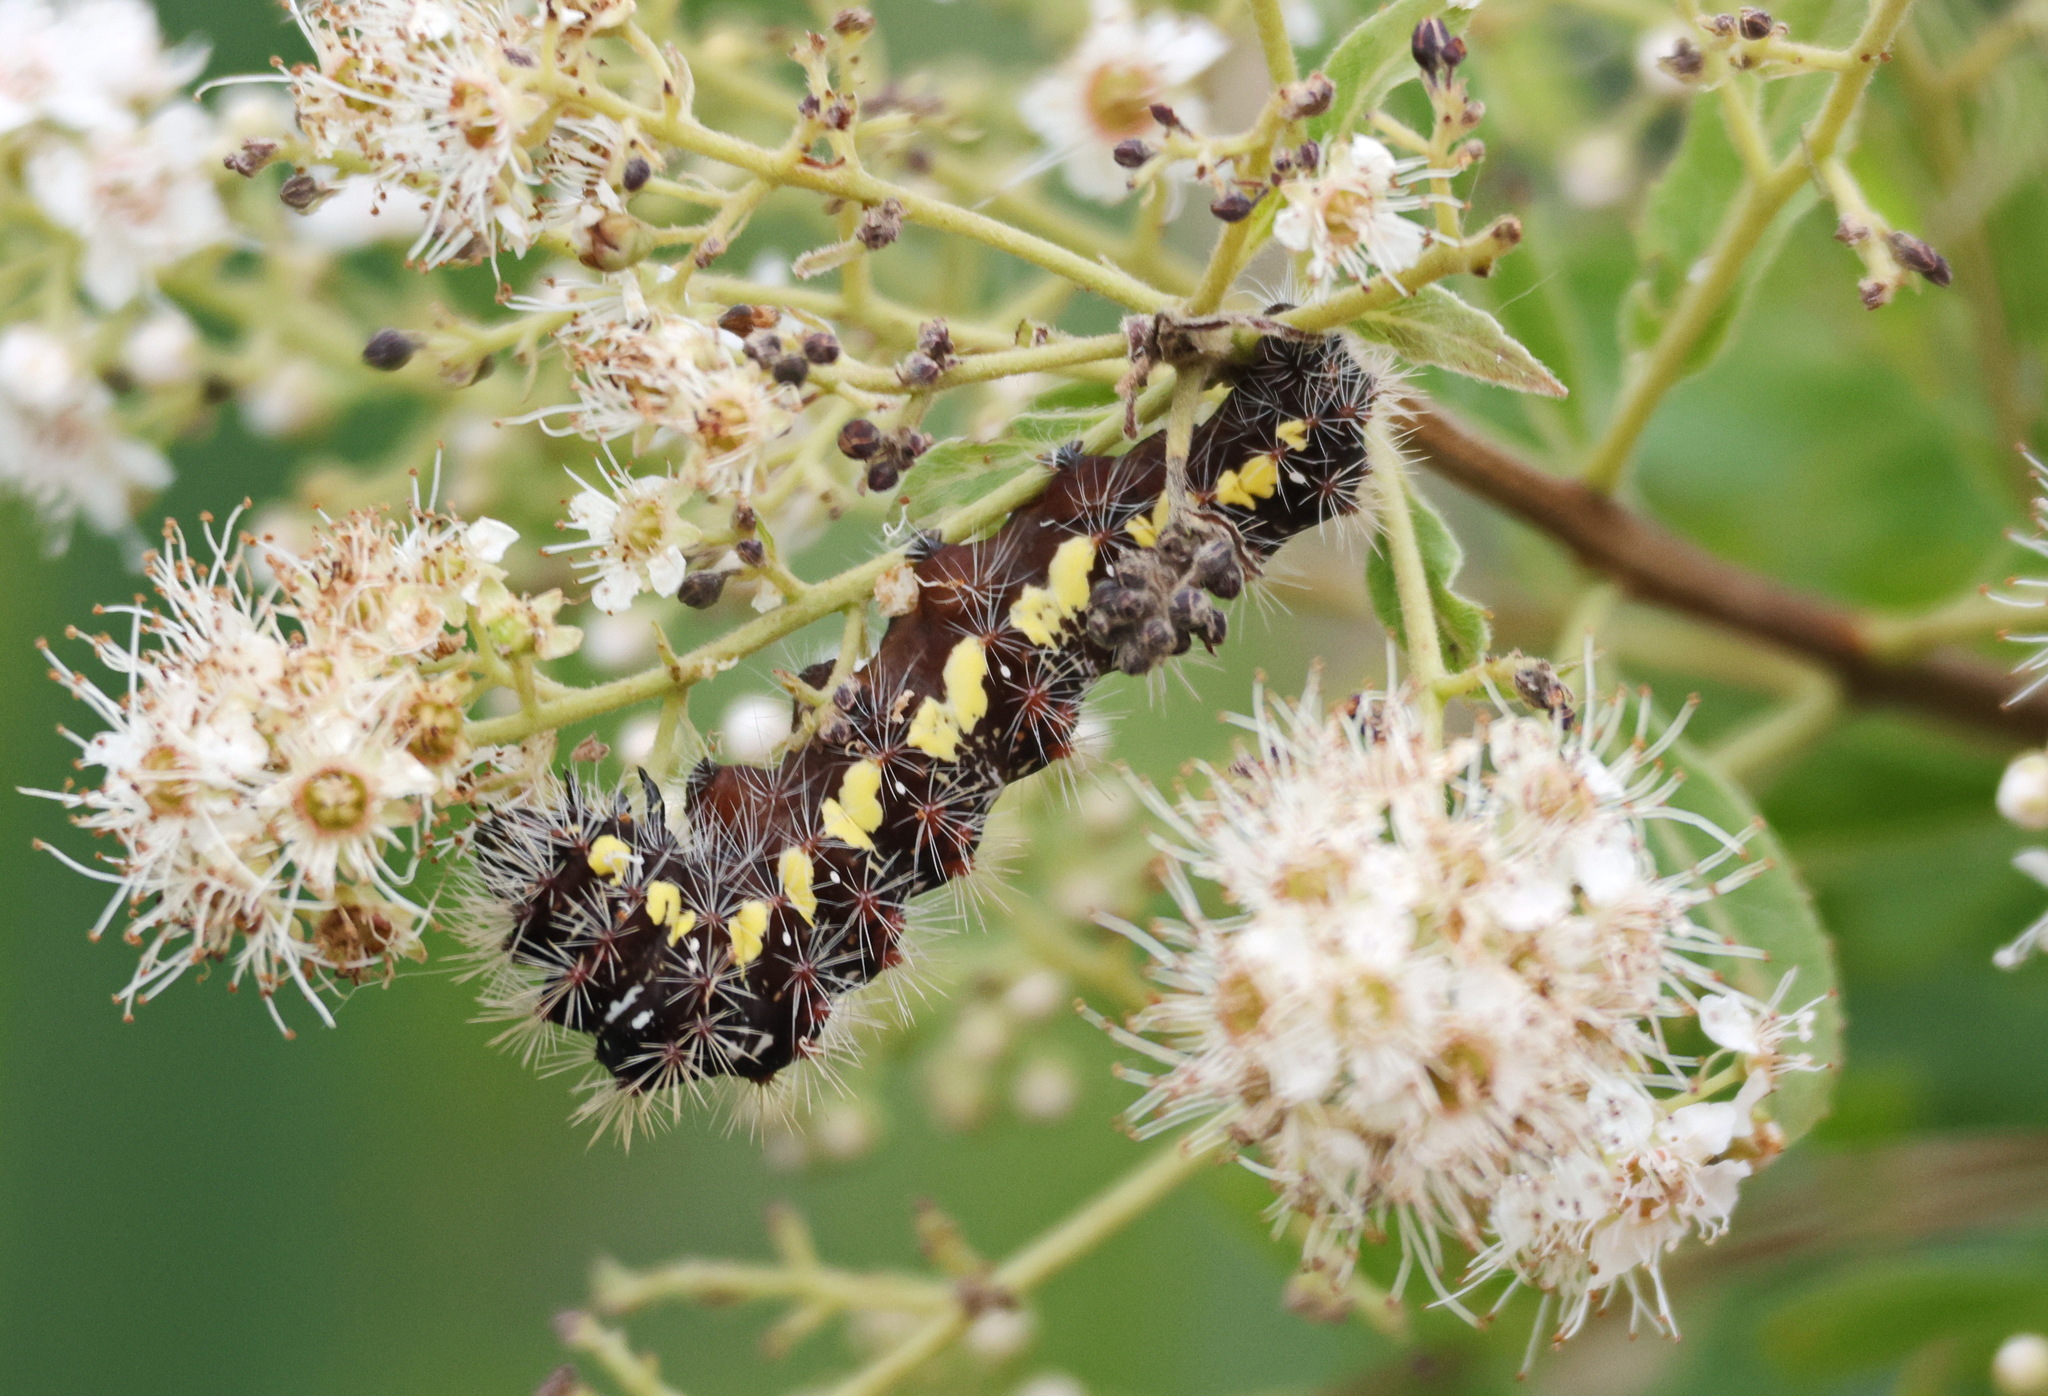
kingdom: Animalia
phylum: Arthropoda
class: Insecta
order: Lepidoptera
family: Noctuidae
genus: Acronicta
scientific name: Acronicta oblinita
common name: Smeared dagger
